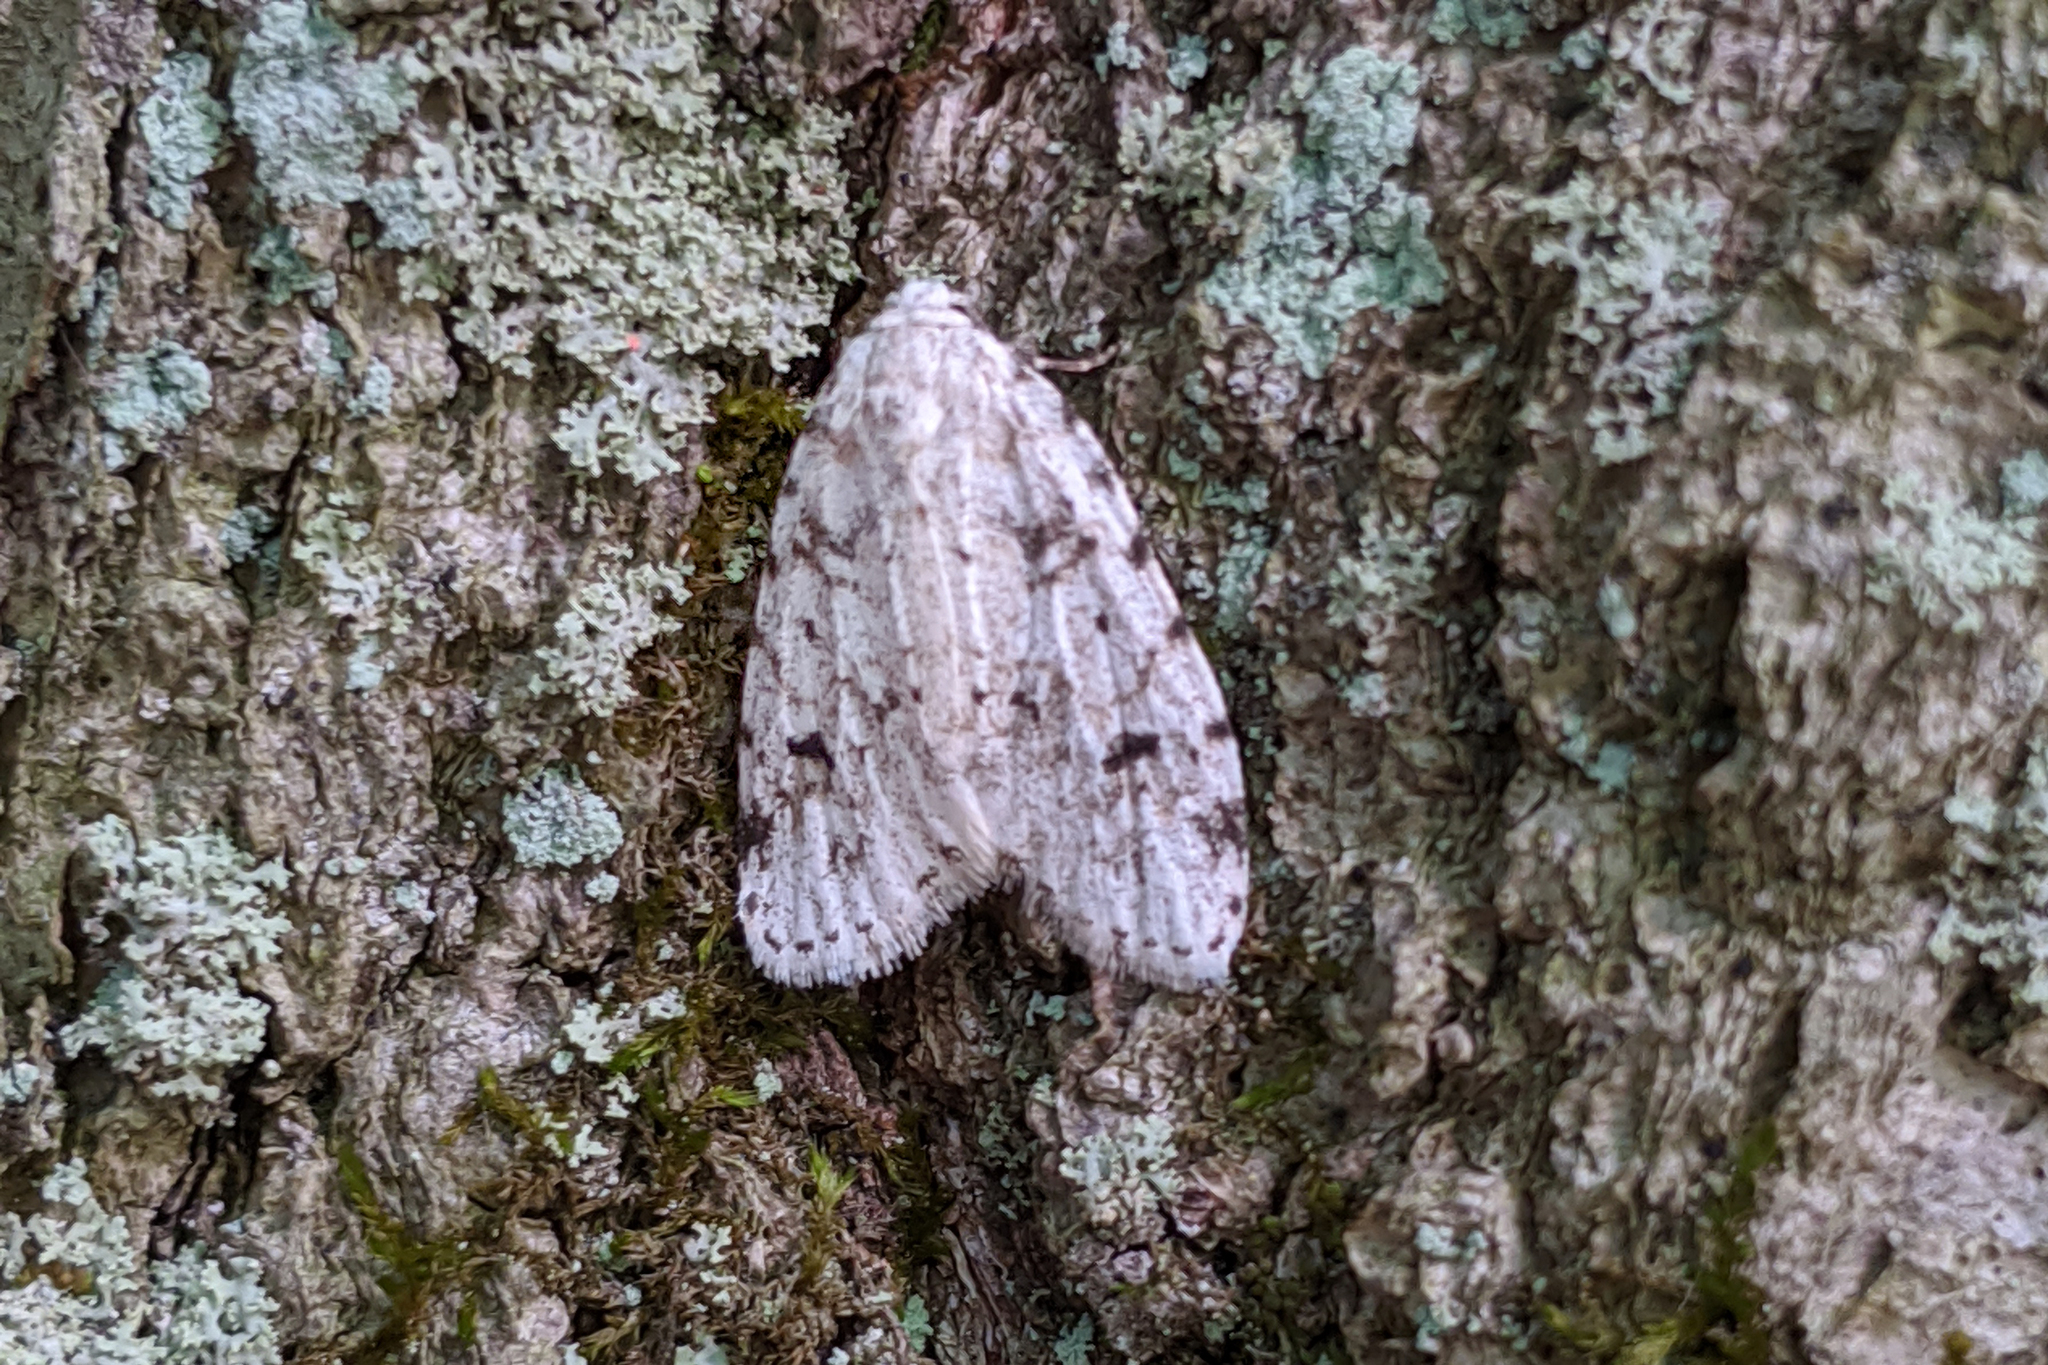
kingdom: Animalia
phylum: Arthropoda
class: Insecta
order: Lepidoptera
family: Erebidae
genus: Clemensia
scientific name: Clemensia albata
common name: Little white lichen moth
